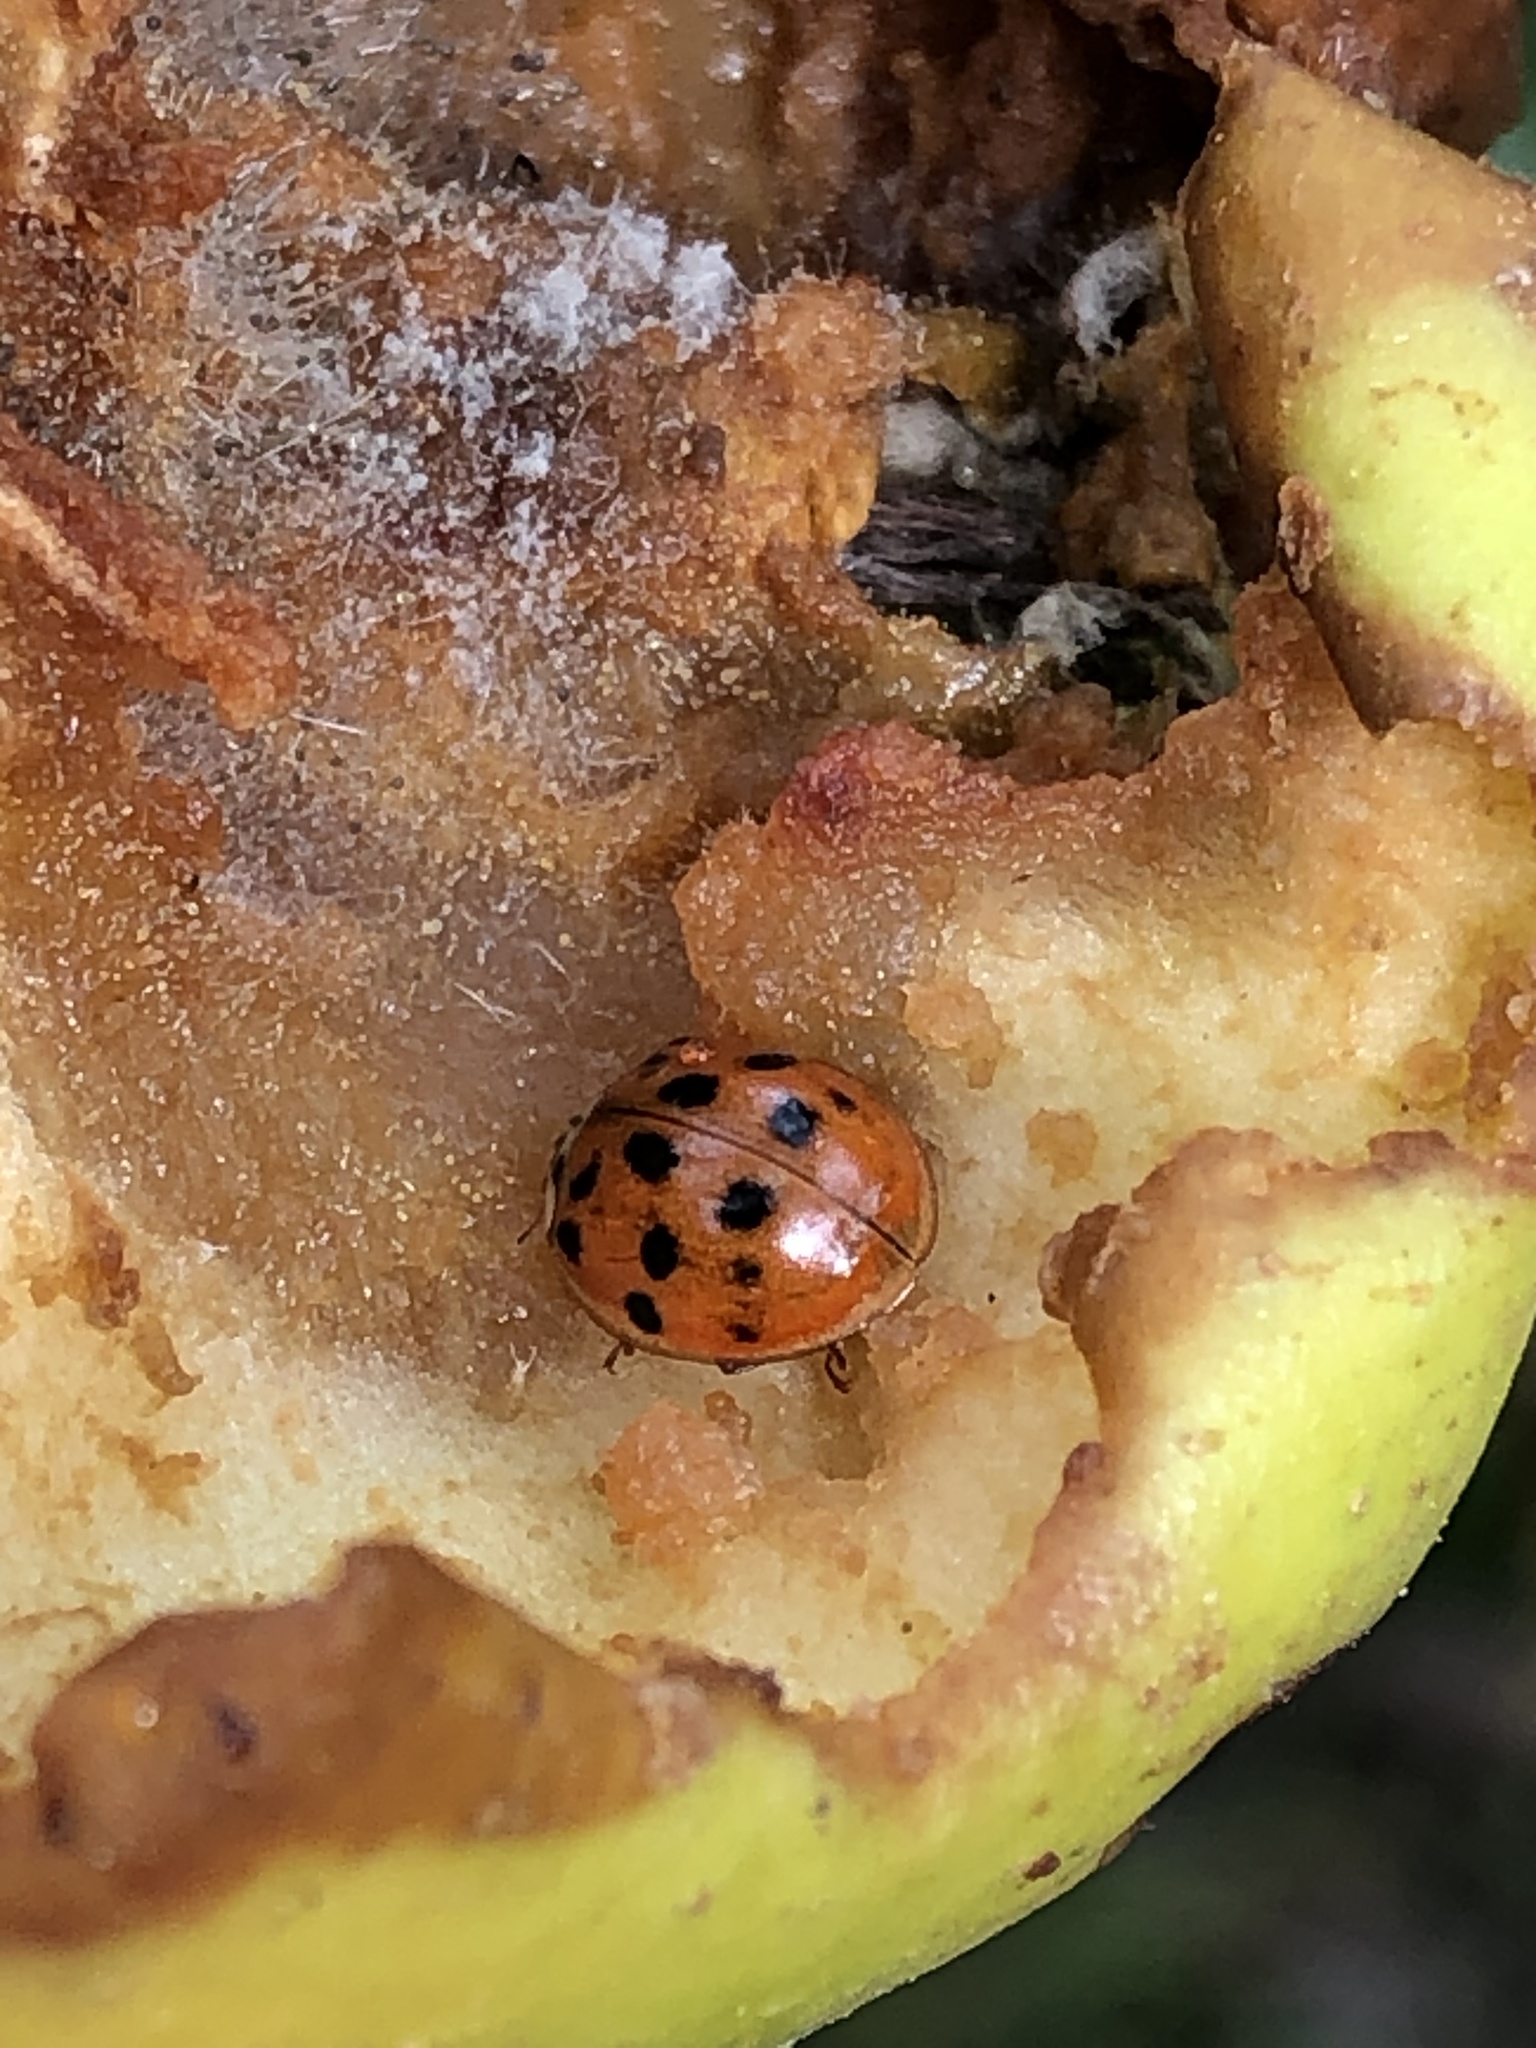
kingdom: Animalia
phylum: Arthropoda
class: Insecta
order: Coleoptera
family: Coccinellidae
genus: Harmonia
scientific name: Harmonia axyridis
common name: Harlequin ladybird
